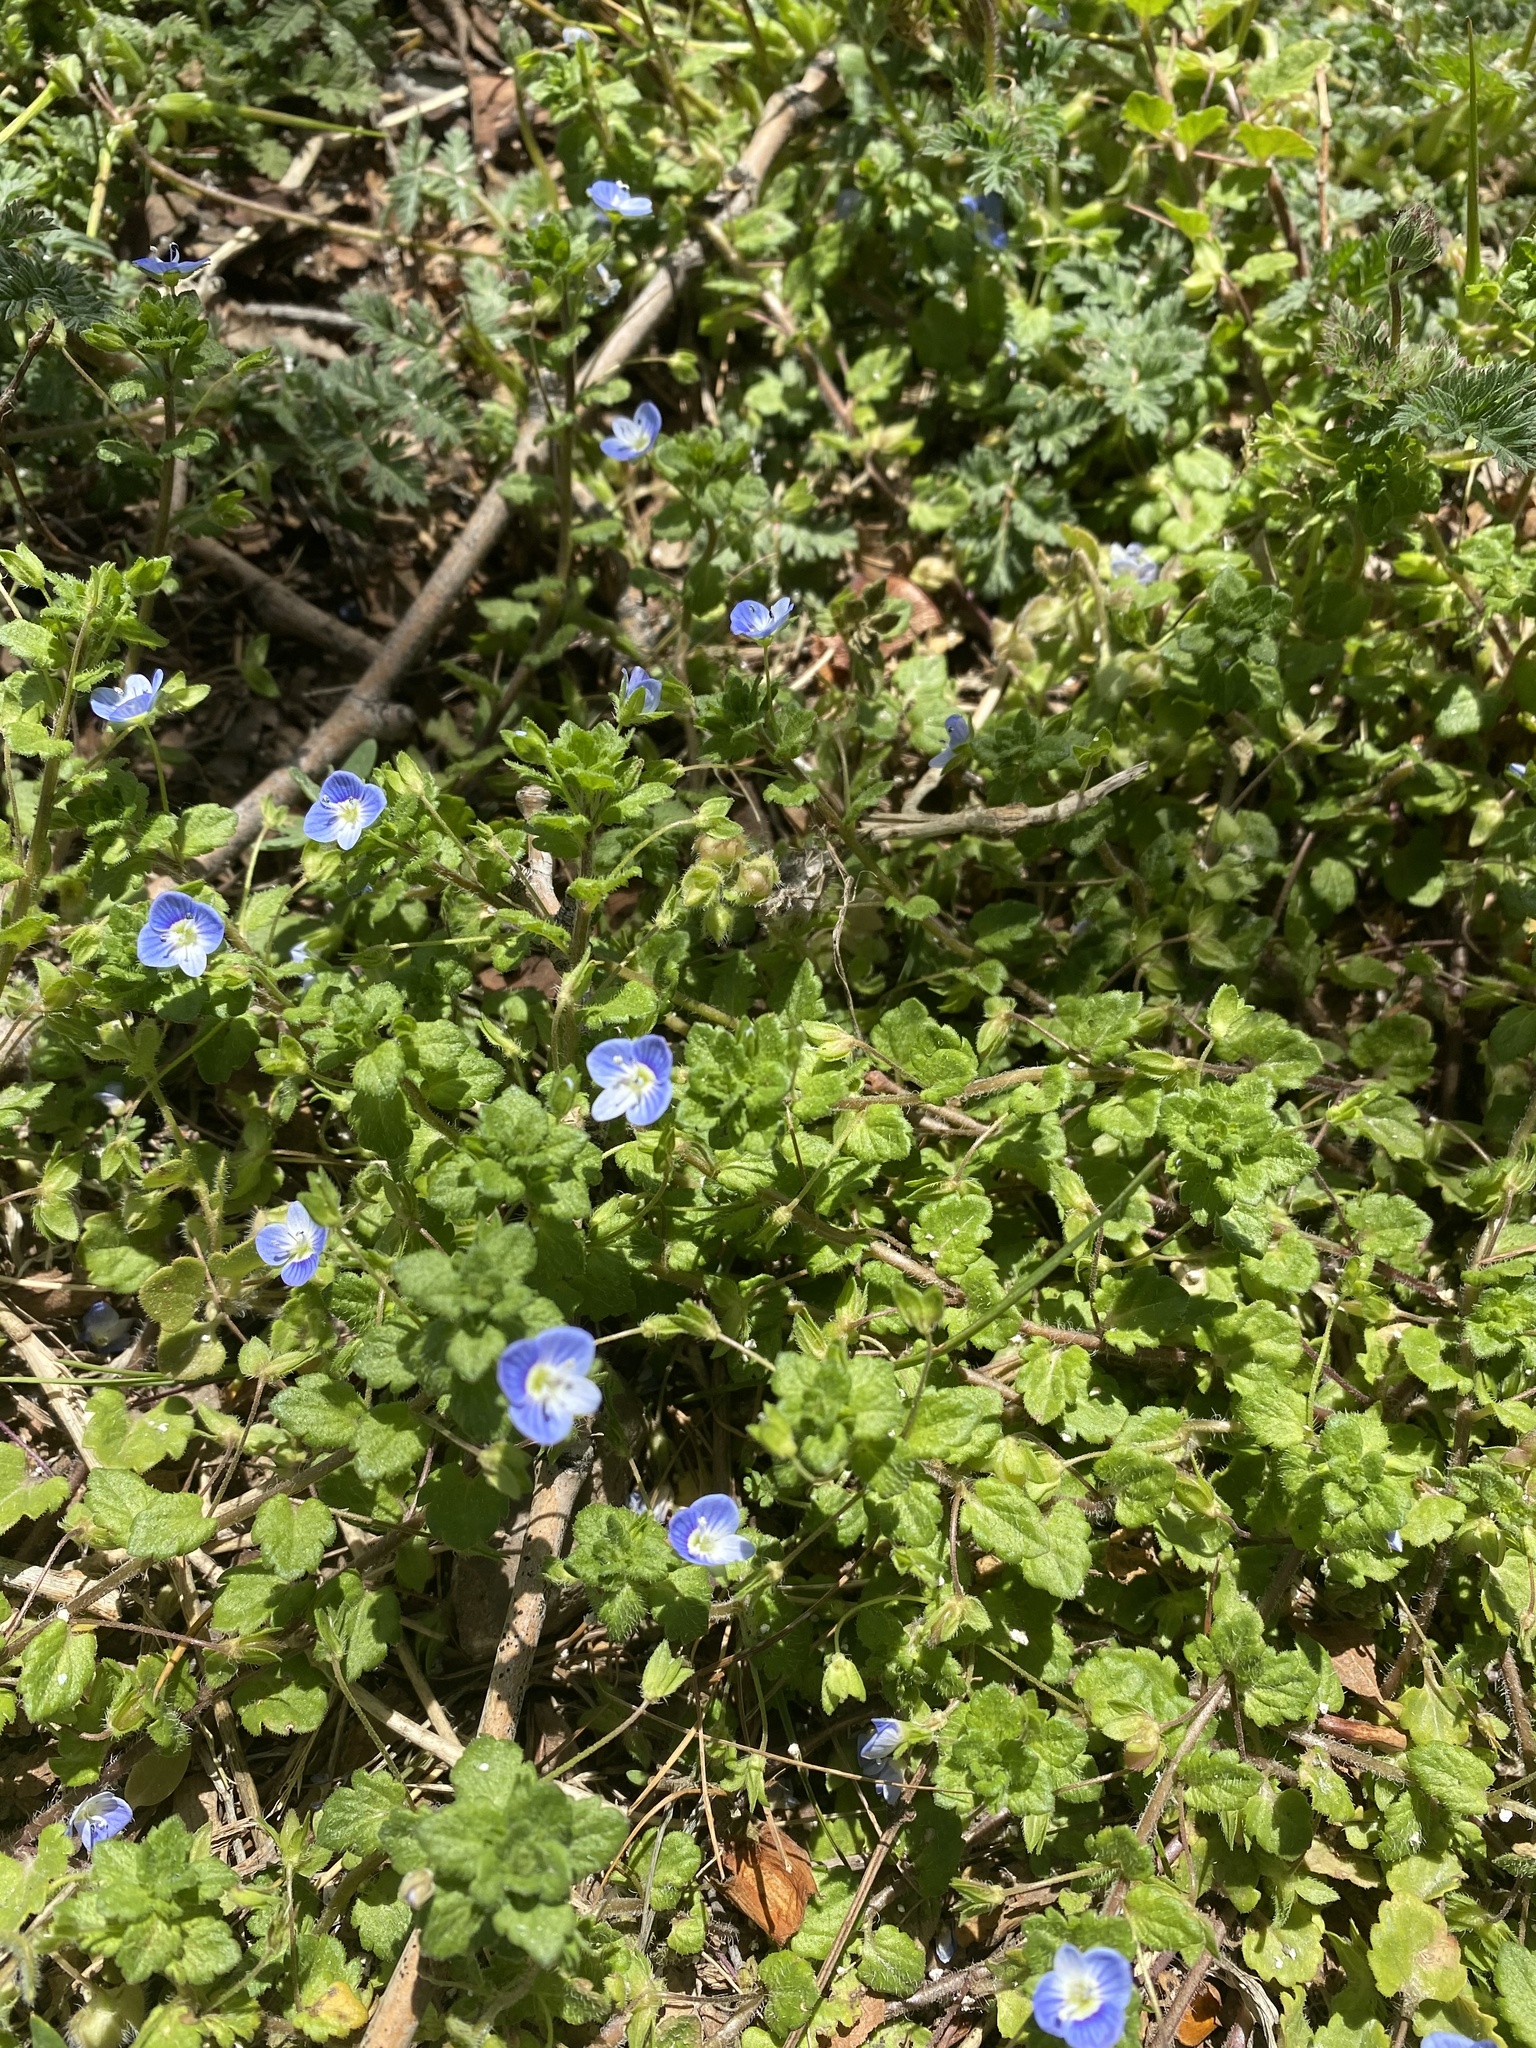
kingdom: Plantae
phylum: Tracheophyta
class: Magnoliopsida
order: Lamiales
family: Plantaginaceae
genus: Veronica
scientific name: Veronica persica
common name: Common field-speedwell
